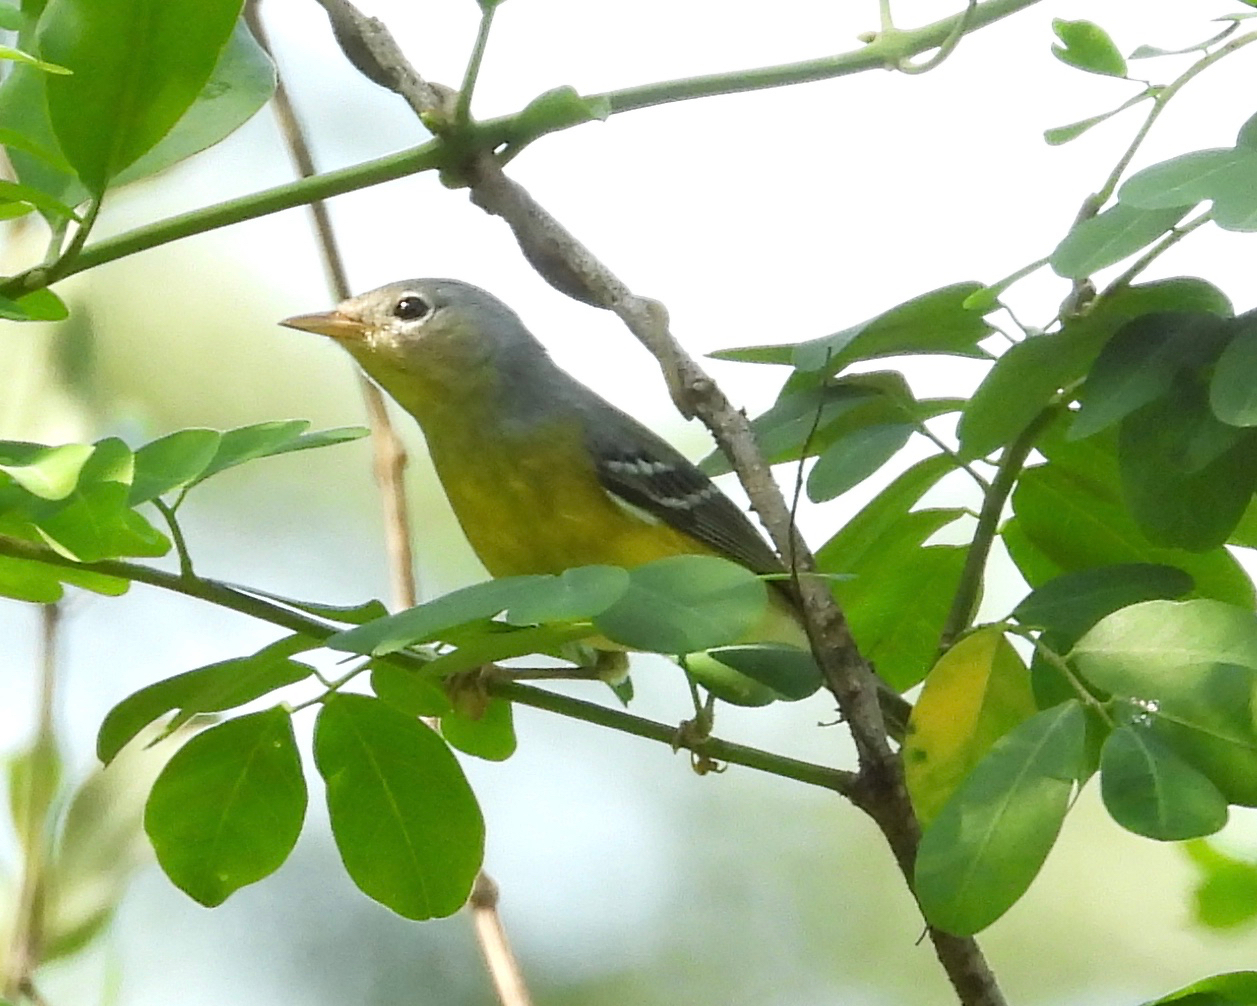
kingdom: Animalia
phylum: Chordata
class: Aves
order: Passeriformes
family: Parulidae
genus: Setophaga
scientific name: Setophaga magnolia
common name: Magnolia warbler
